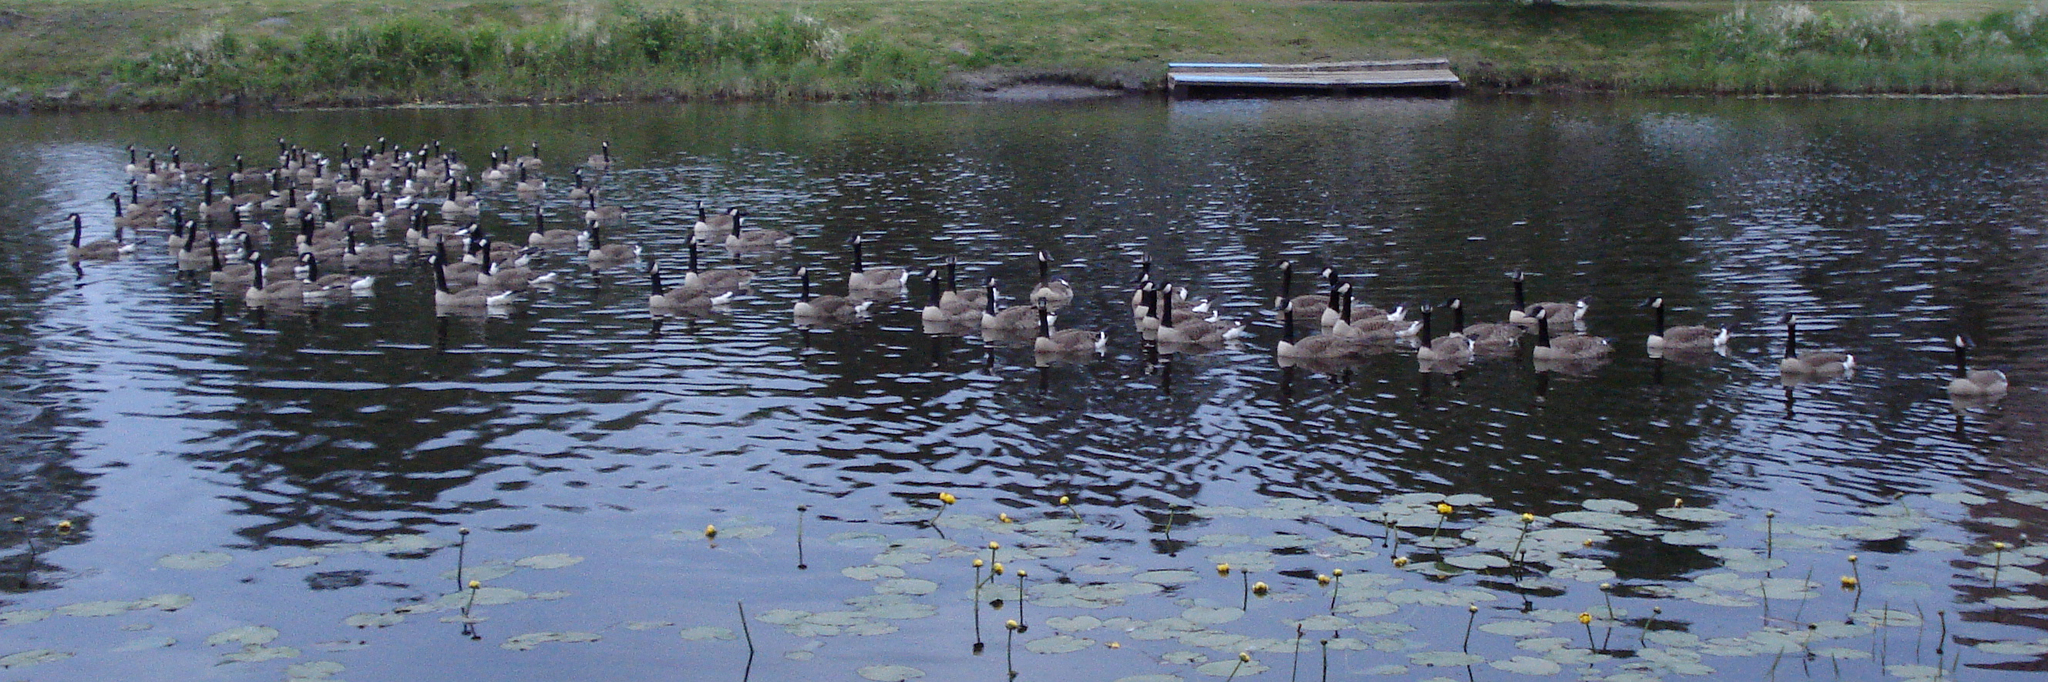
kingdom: Animalia
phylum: Chordata
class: Aves
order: Anseriformes
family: Anatidae
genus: Branta
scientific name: Branta canadensis
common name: Canada goose
